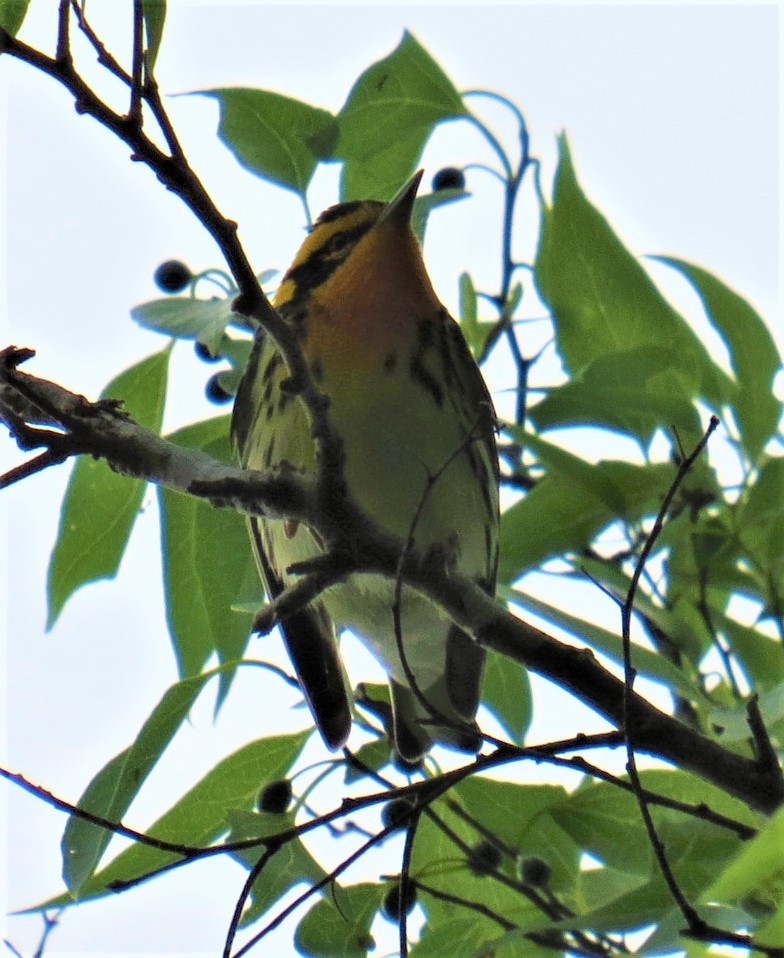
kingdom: Animalia
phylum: Chordata
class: Aves
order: Passeriformes
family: Parulidae
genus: Setophaga
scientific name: Setophaga fusca
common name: Blackburnian warbler
